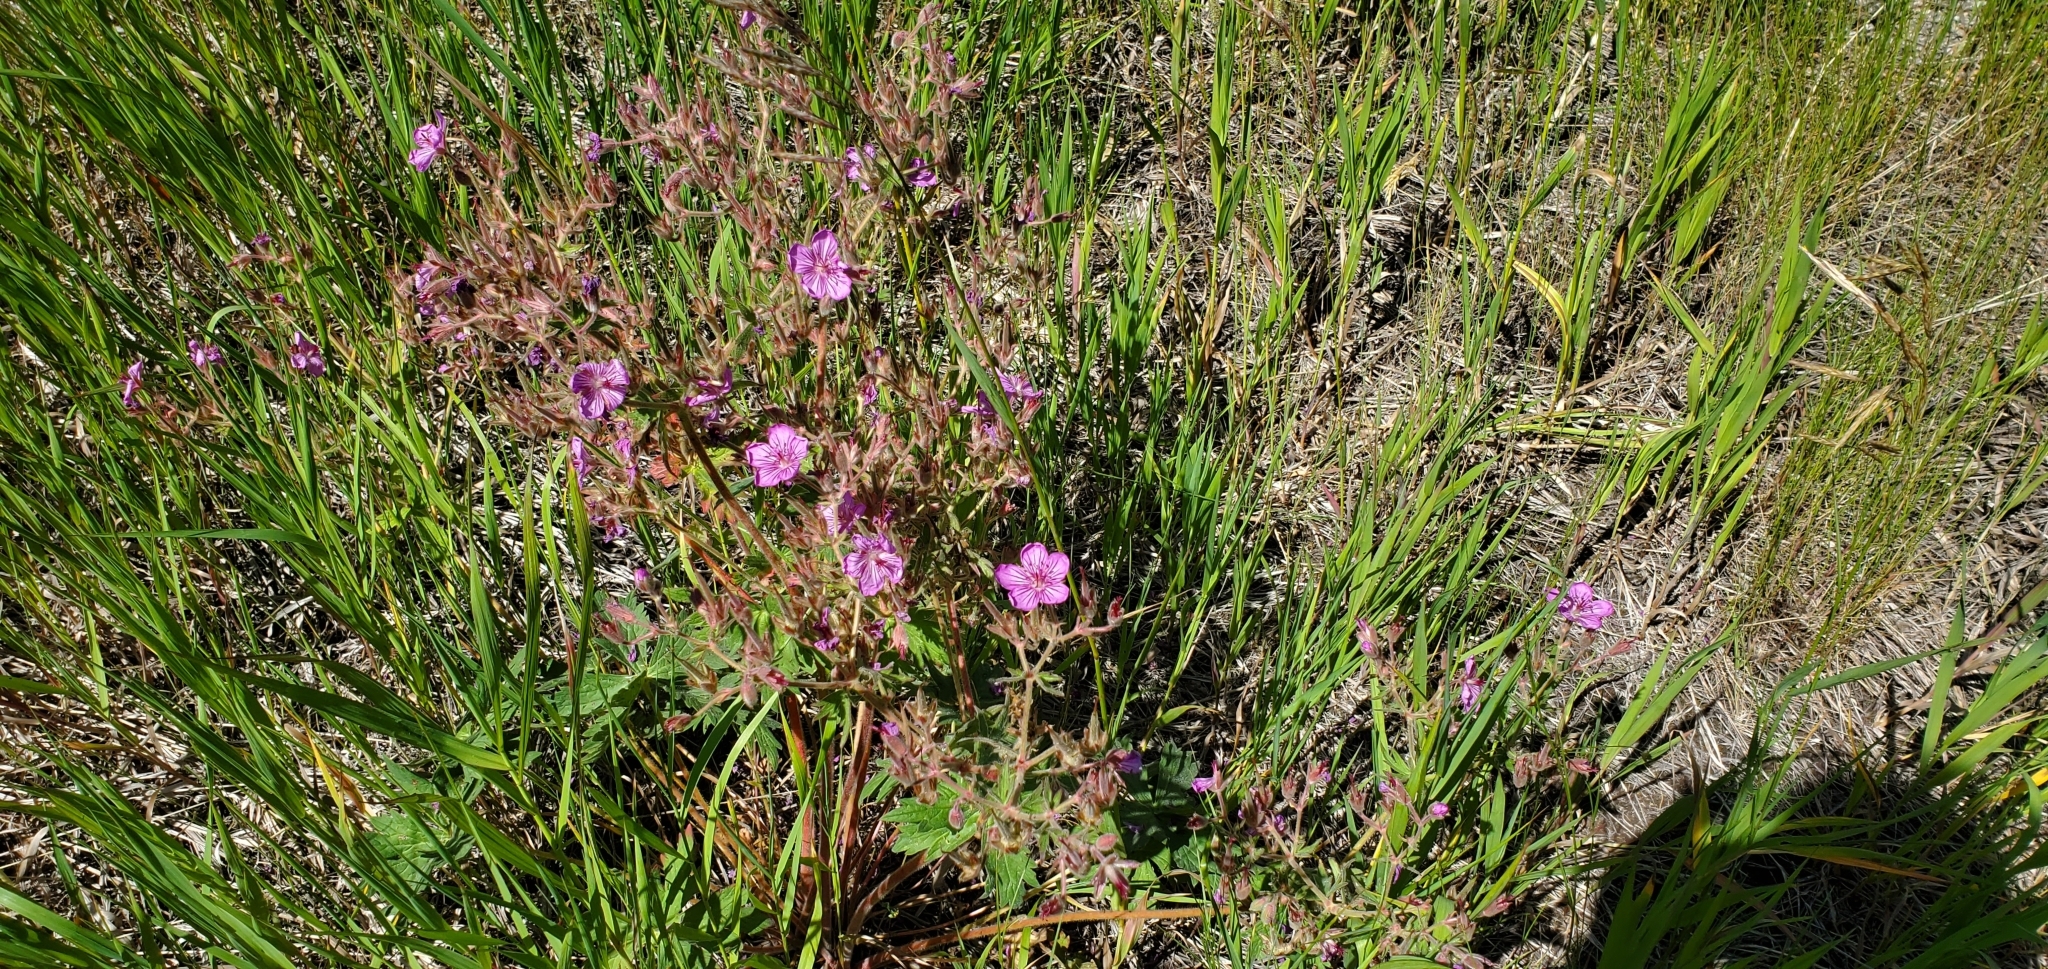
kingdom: Plantae
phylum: Tracheophyta
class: Magnoliopsida
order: Geraniales
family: Geraniaceae
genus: Geranium
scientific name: Geranium viscosissimum
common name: Purple geranium
